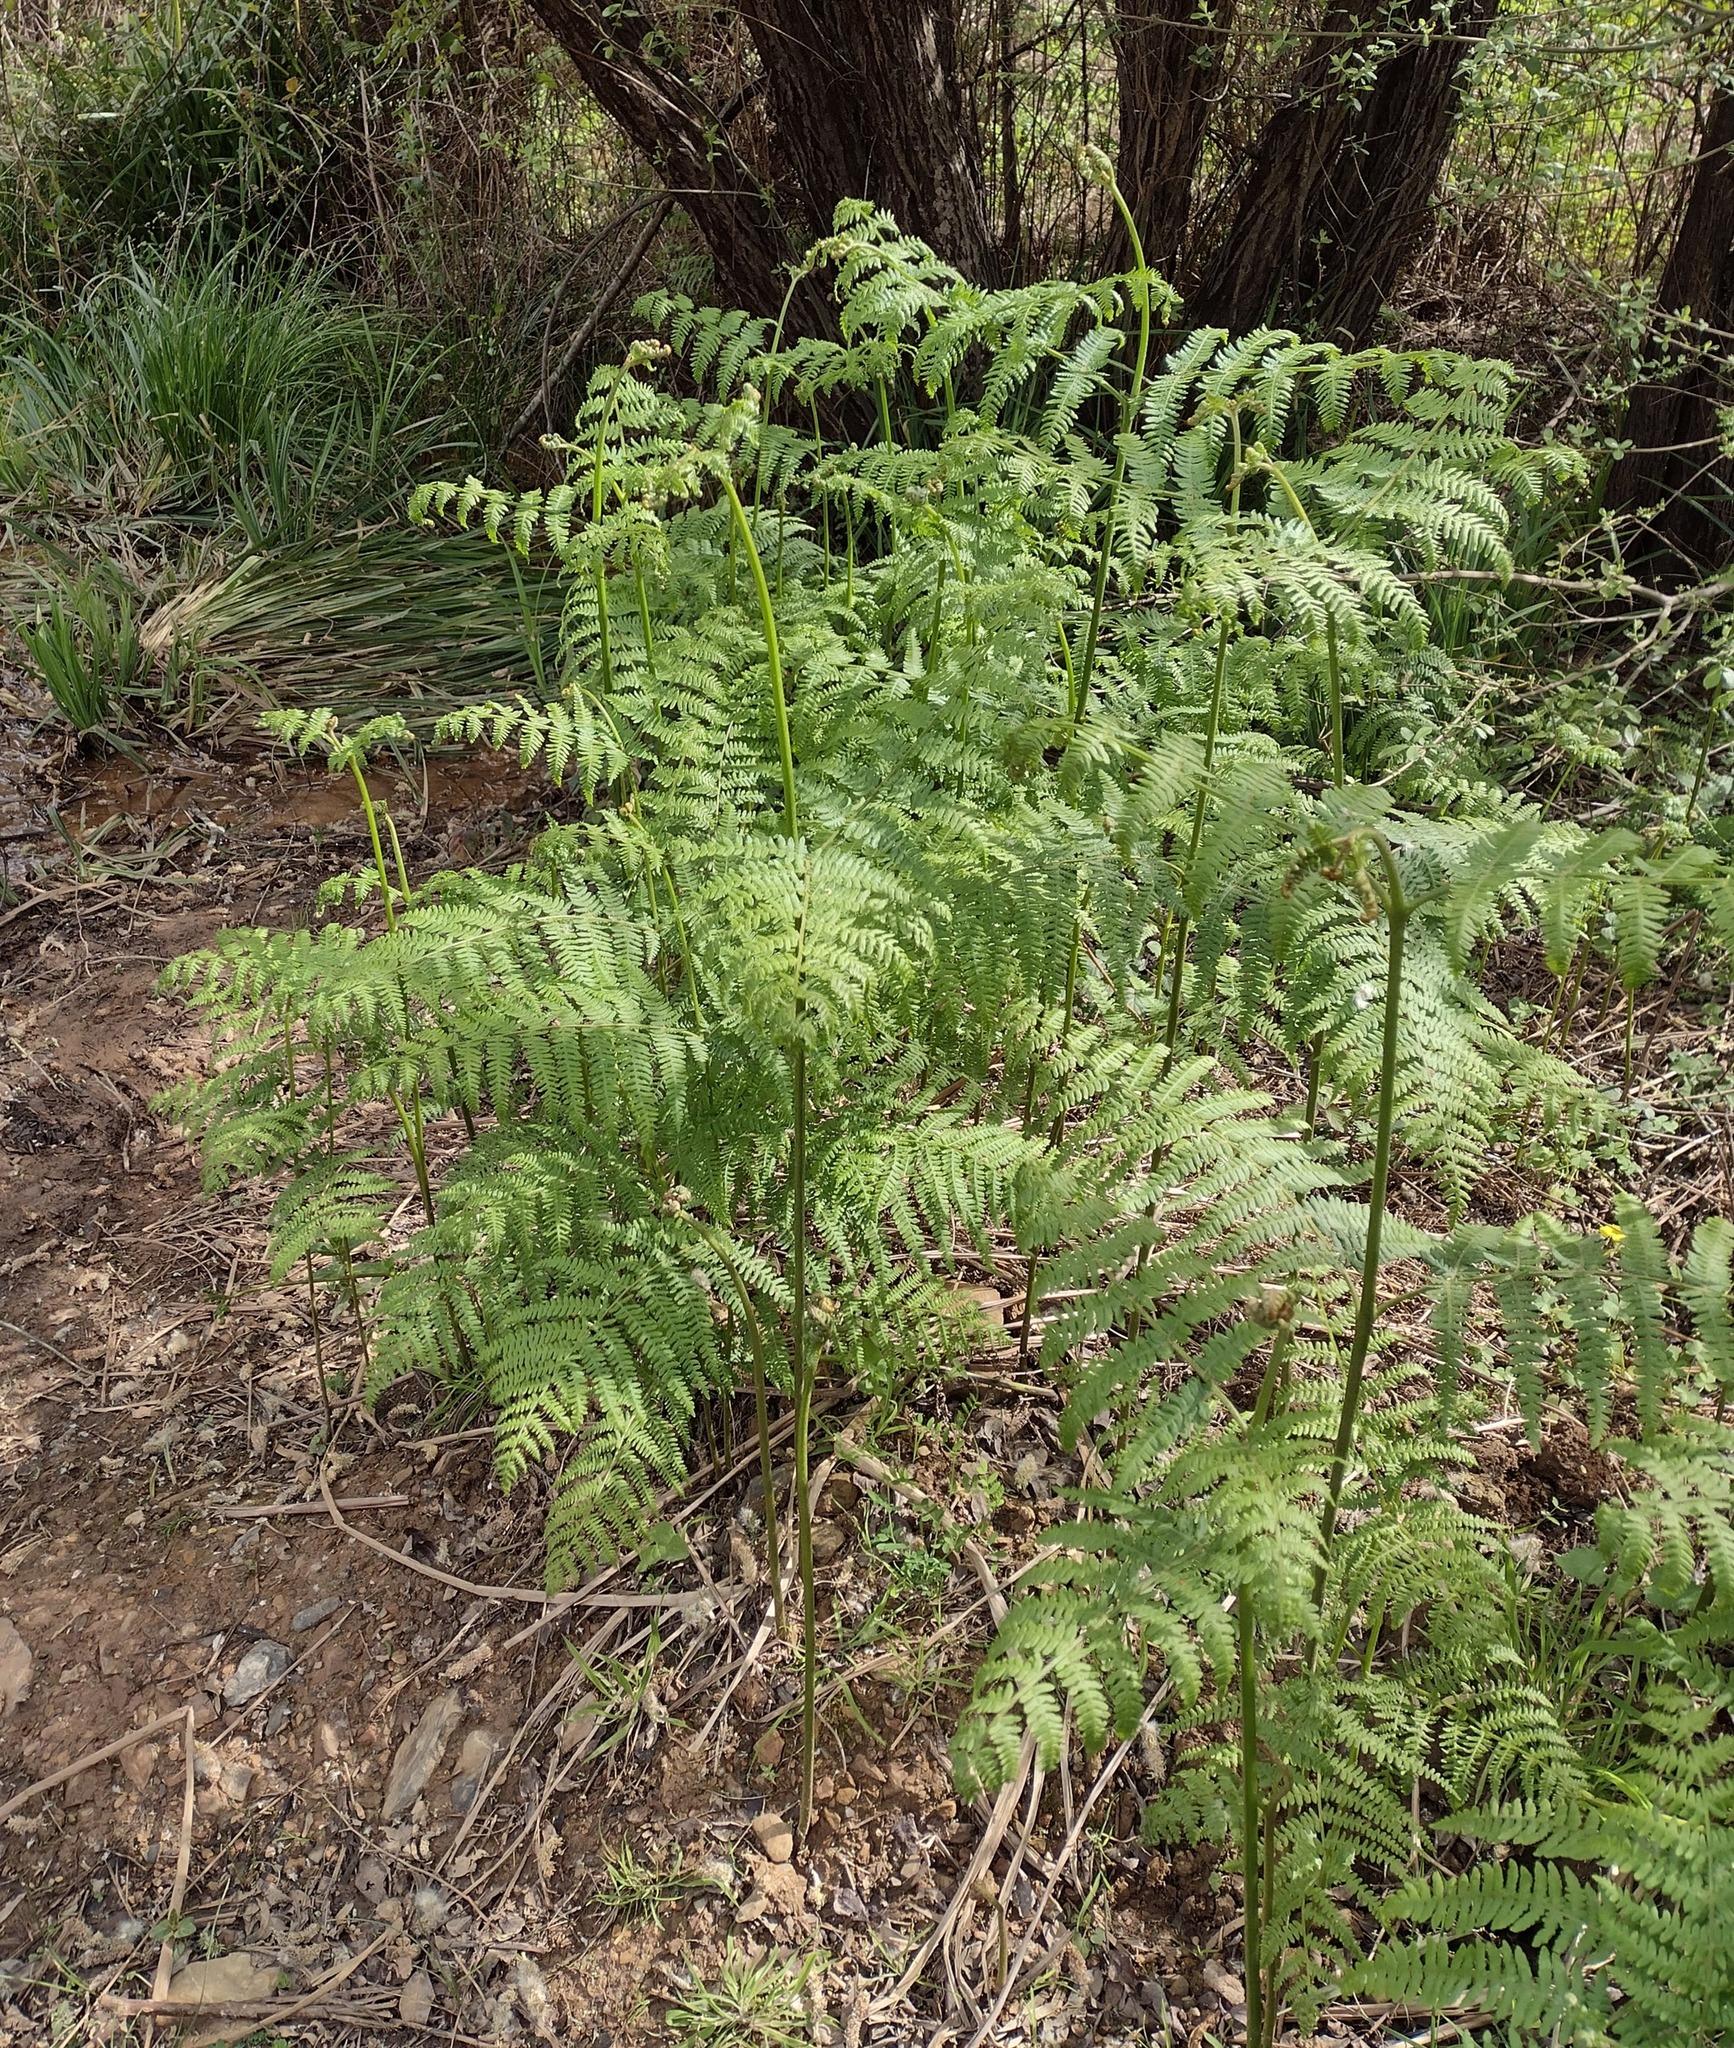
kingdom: Plantae
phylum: Tracheophyta
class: Polypodiopsida
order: Polypodiales
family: Dennstaedtiaceae
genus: Pteridium
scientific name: Pteridium aquilinum
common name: Bracken
